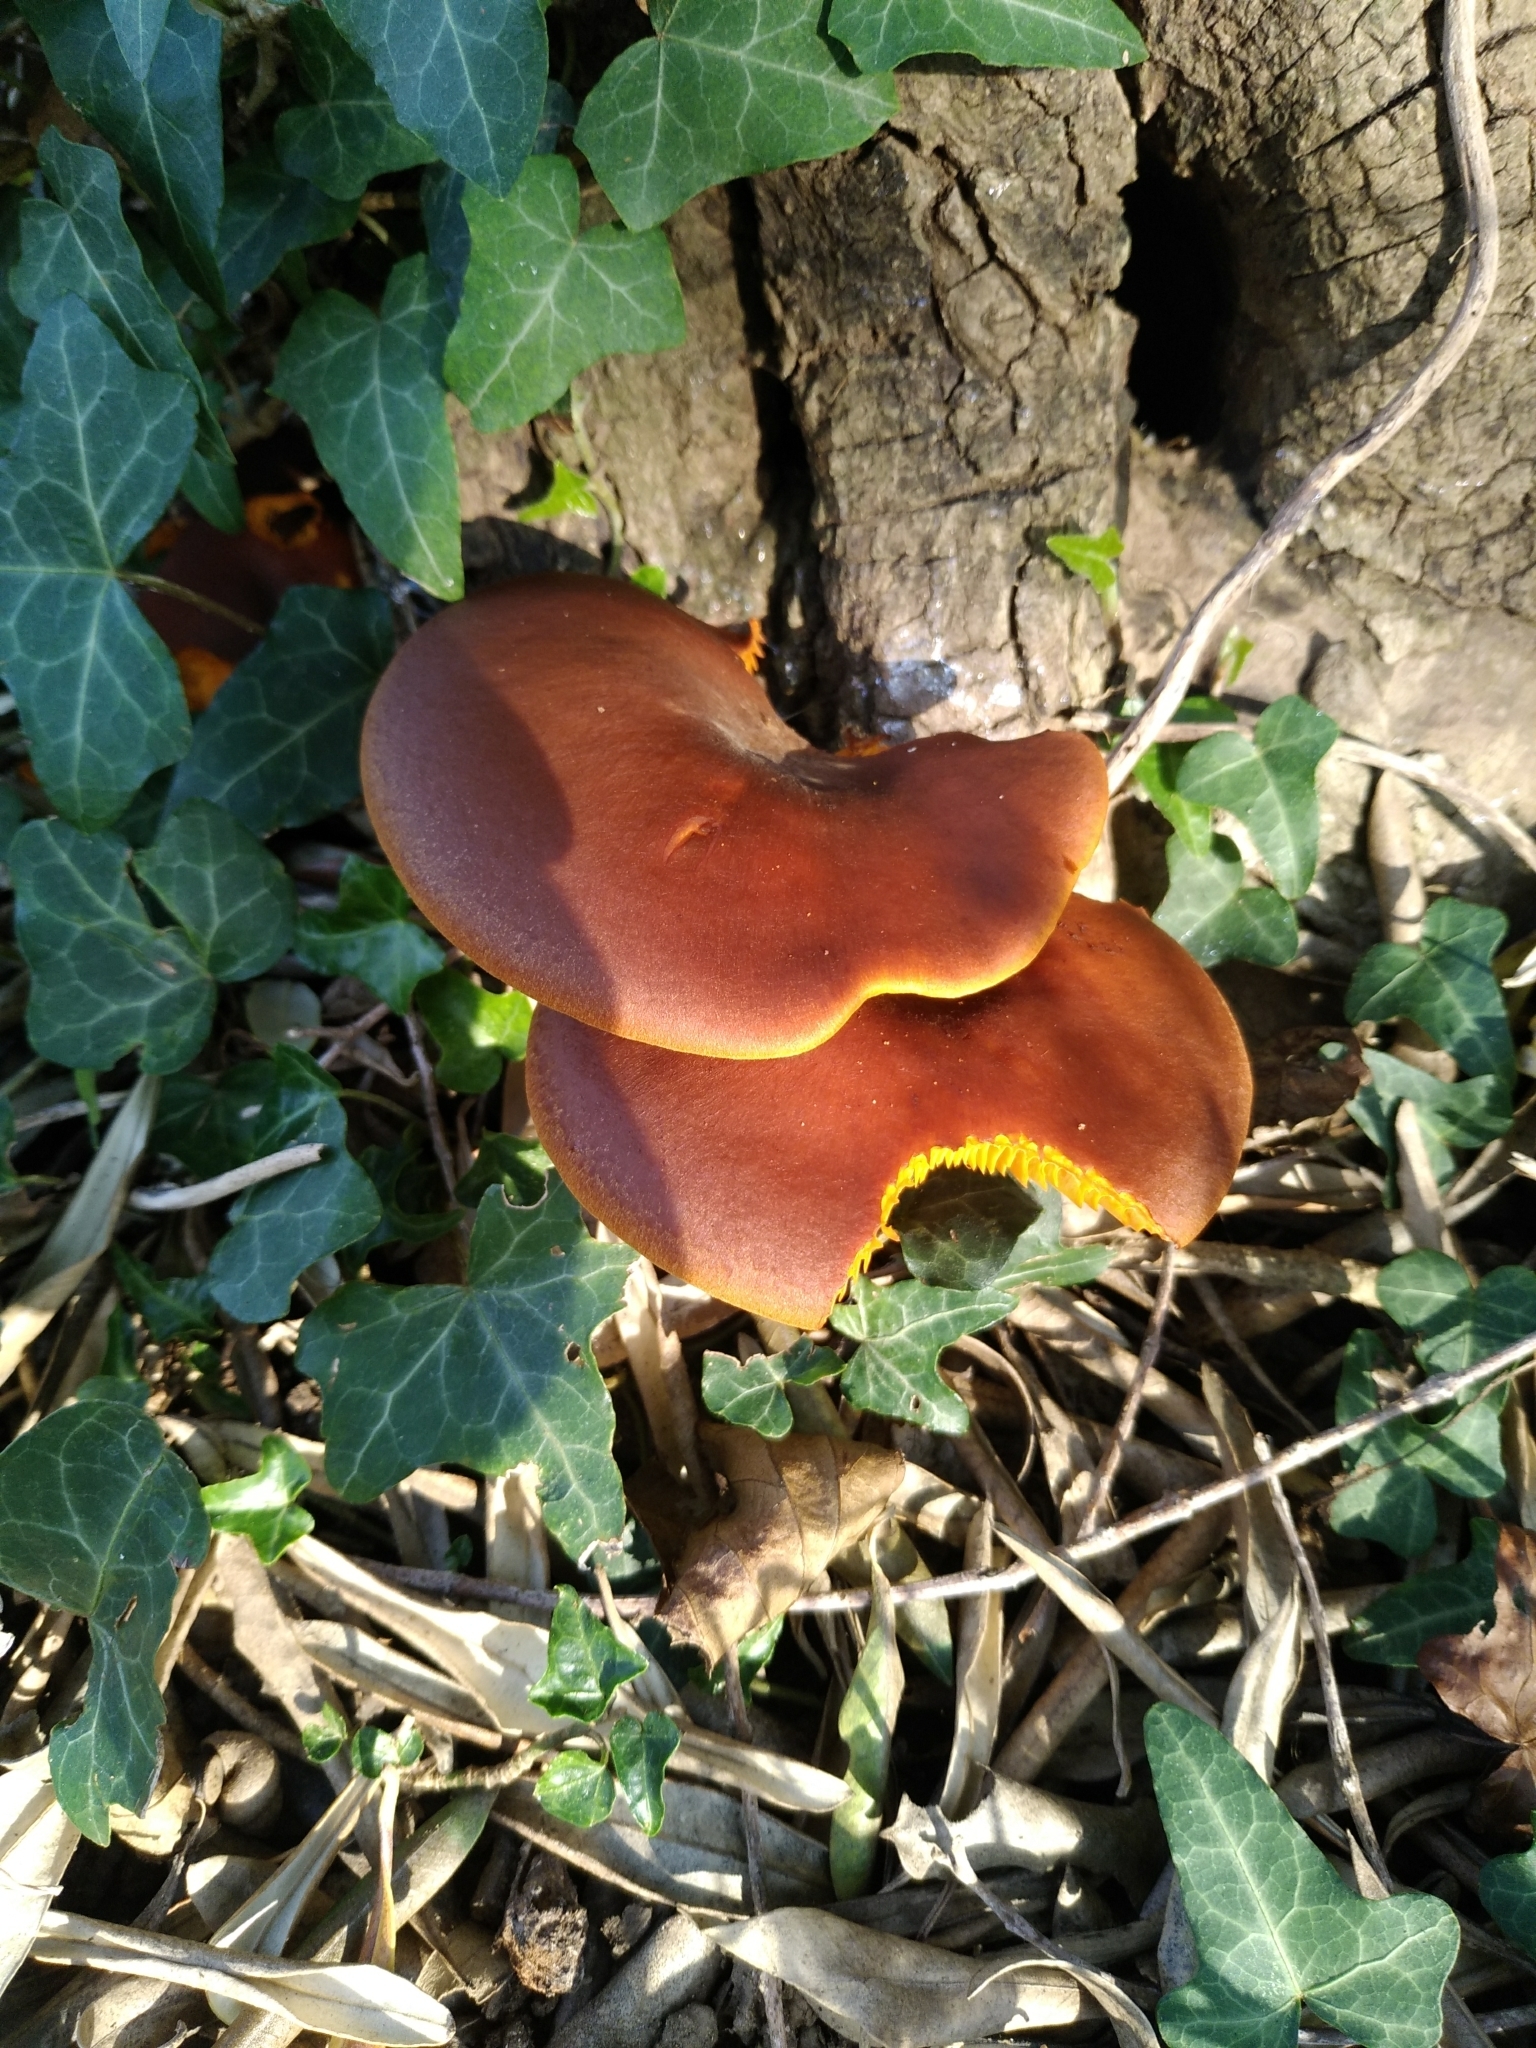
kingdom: Fungi
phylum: Basidiomycota
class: Agaricomycetes
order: Agaricales
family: Omphalotaceae
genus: Omphalotus
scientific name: Omphalotus olearius
